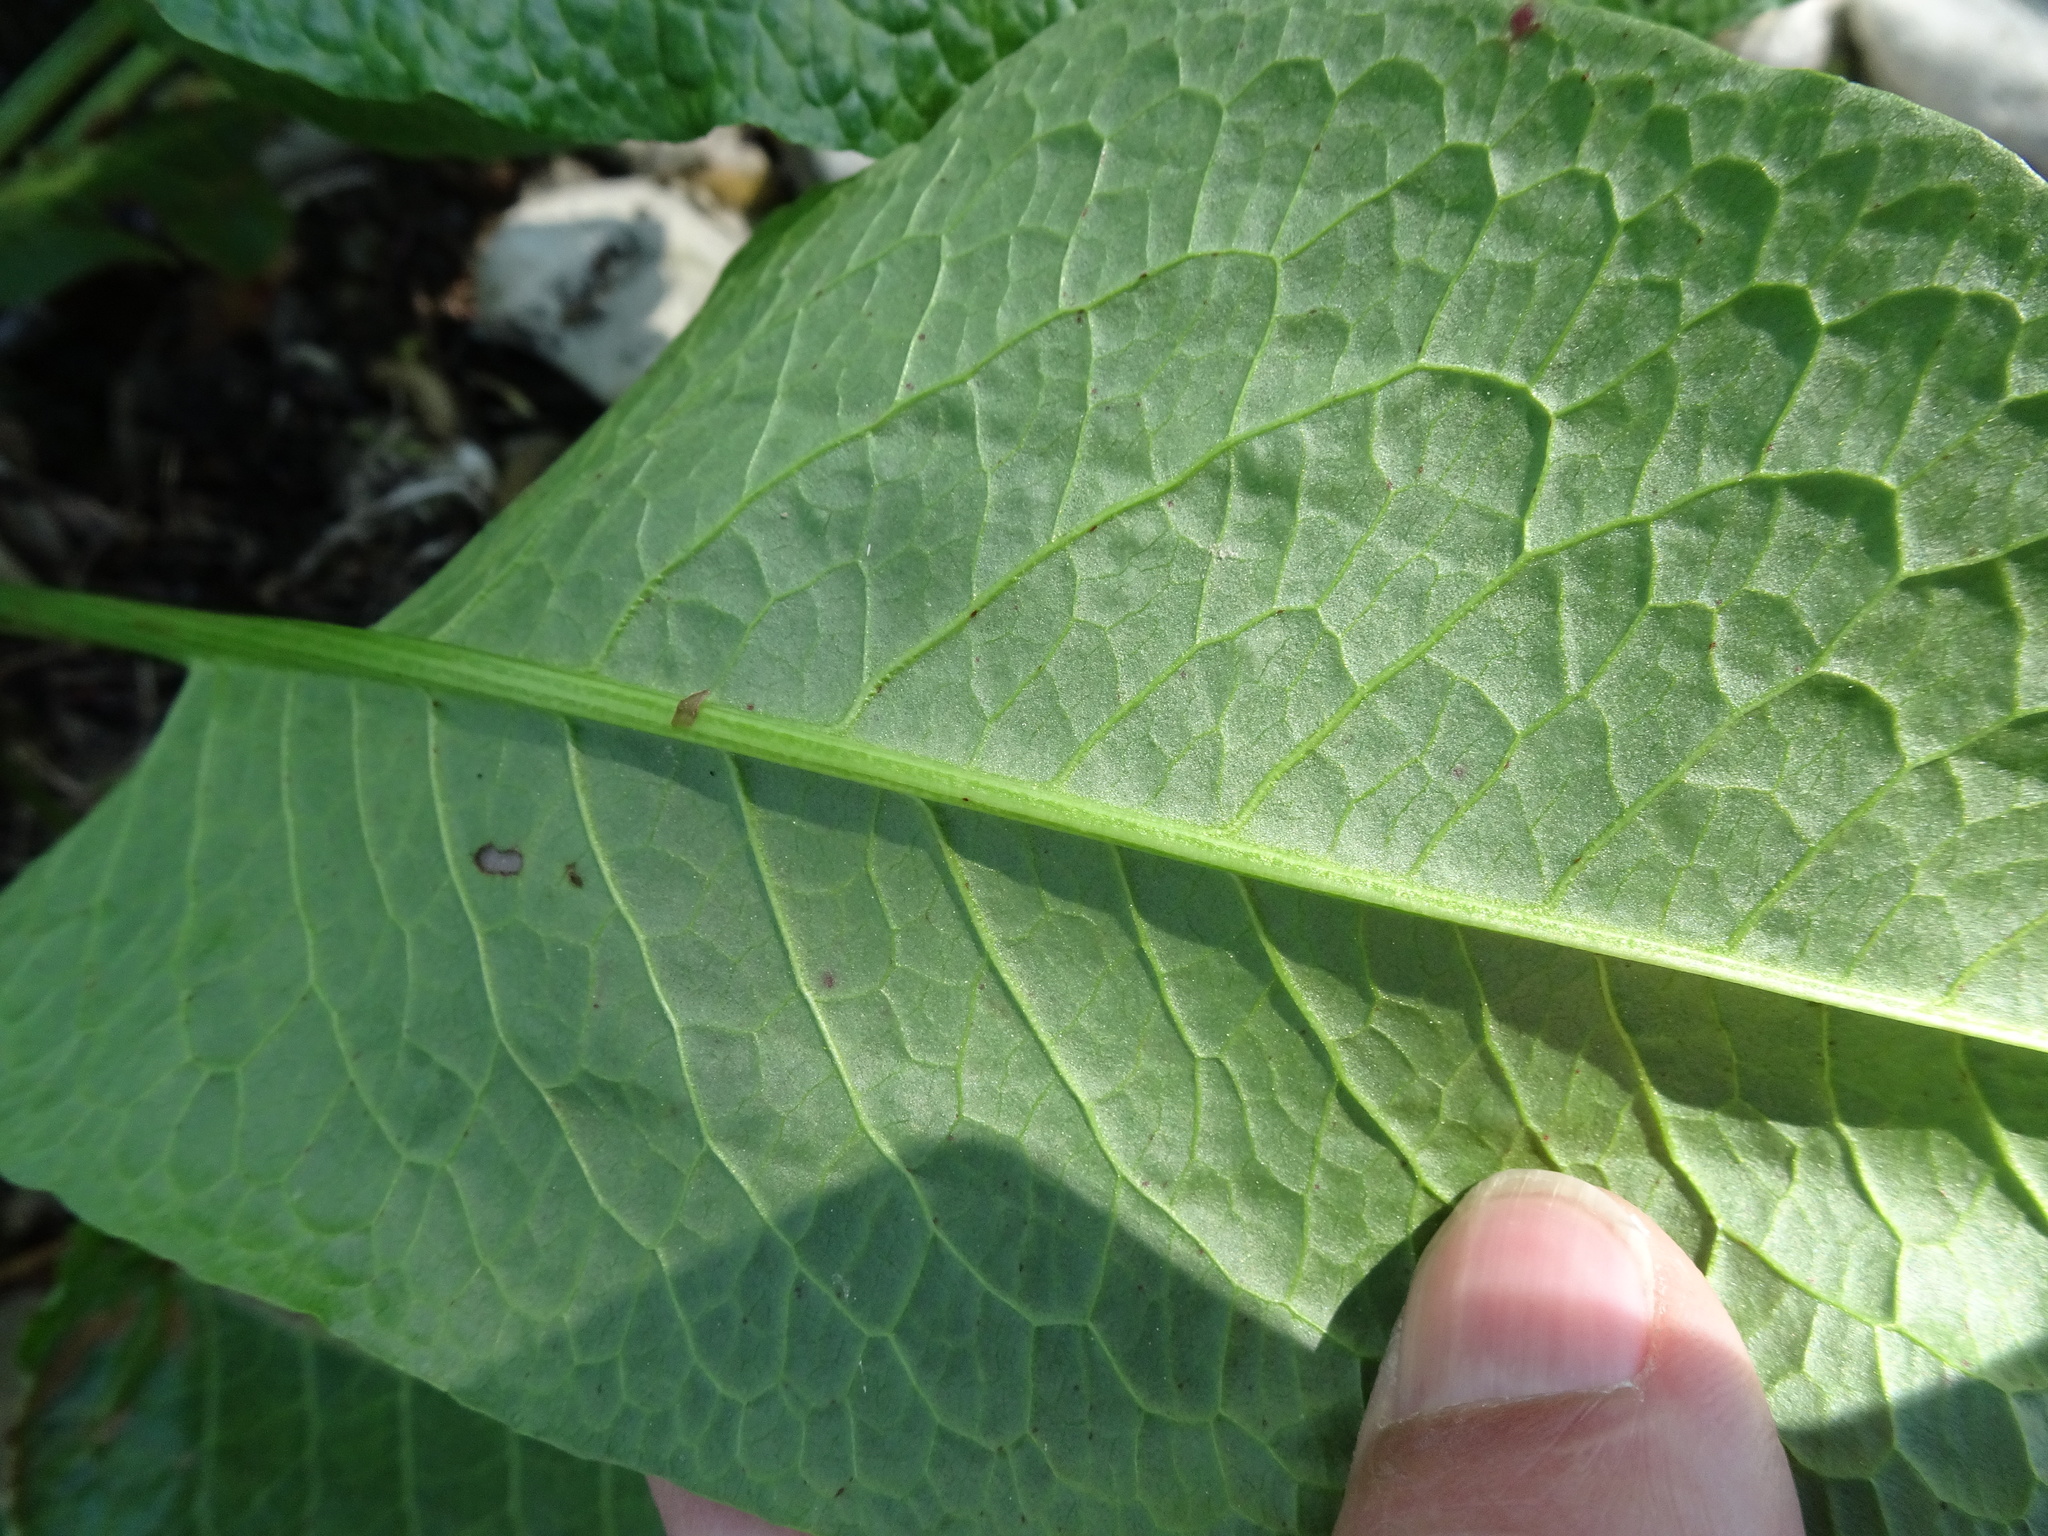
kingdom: Plantae
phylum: Tracheophyta
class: Magnoliopsida
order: Caryophyllales
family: Polygonaceae
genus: Rumex
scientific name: Rumex obtusifolius
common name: Bitter dock
